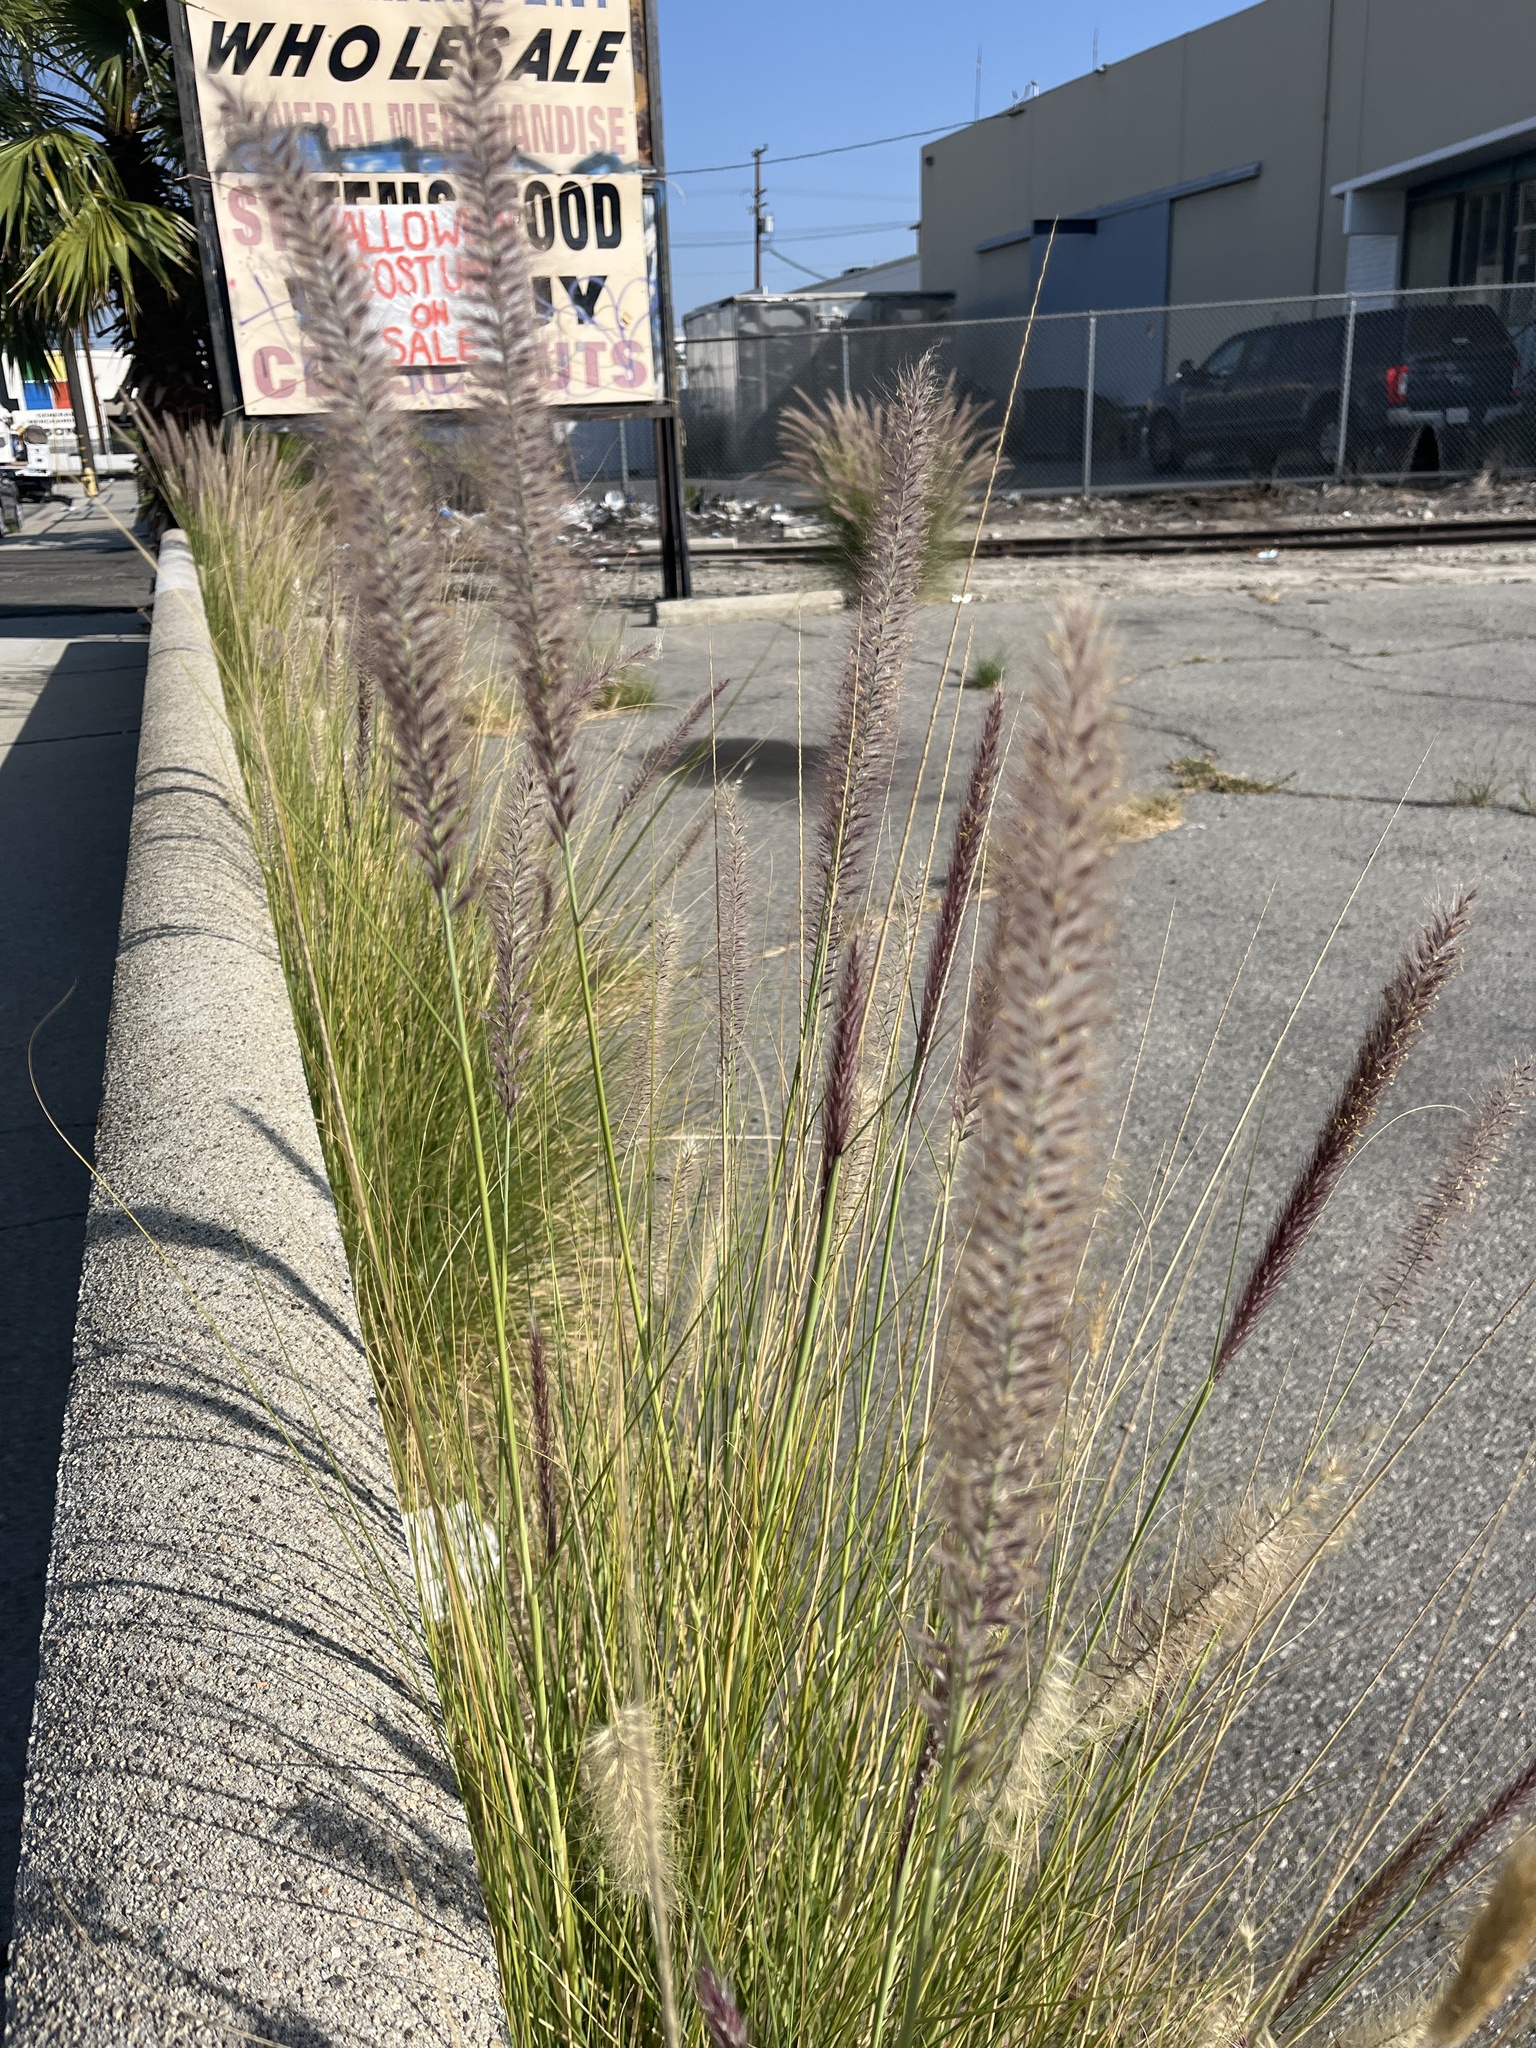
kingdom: Plantae
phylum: Tracheophyta
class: Liliopsida
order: Poales
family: Poaceae
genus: Cenchrus
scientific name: Cenchrus setaceus
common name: Crimson fountaingrass
